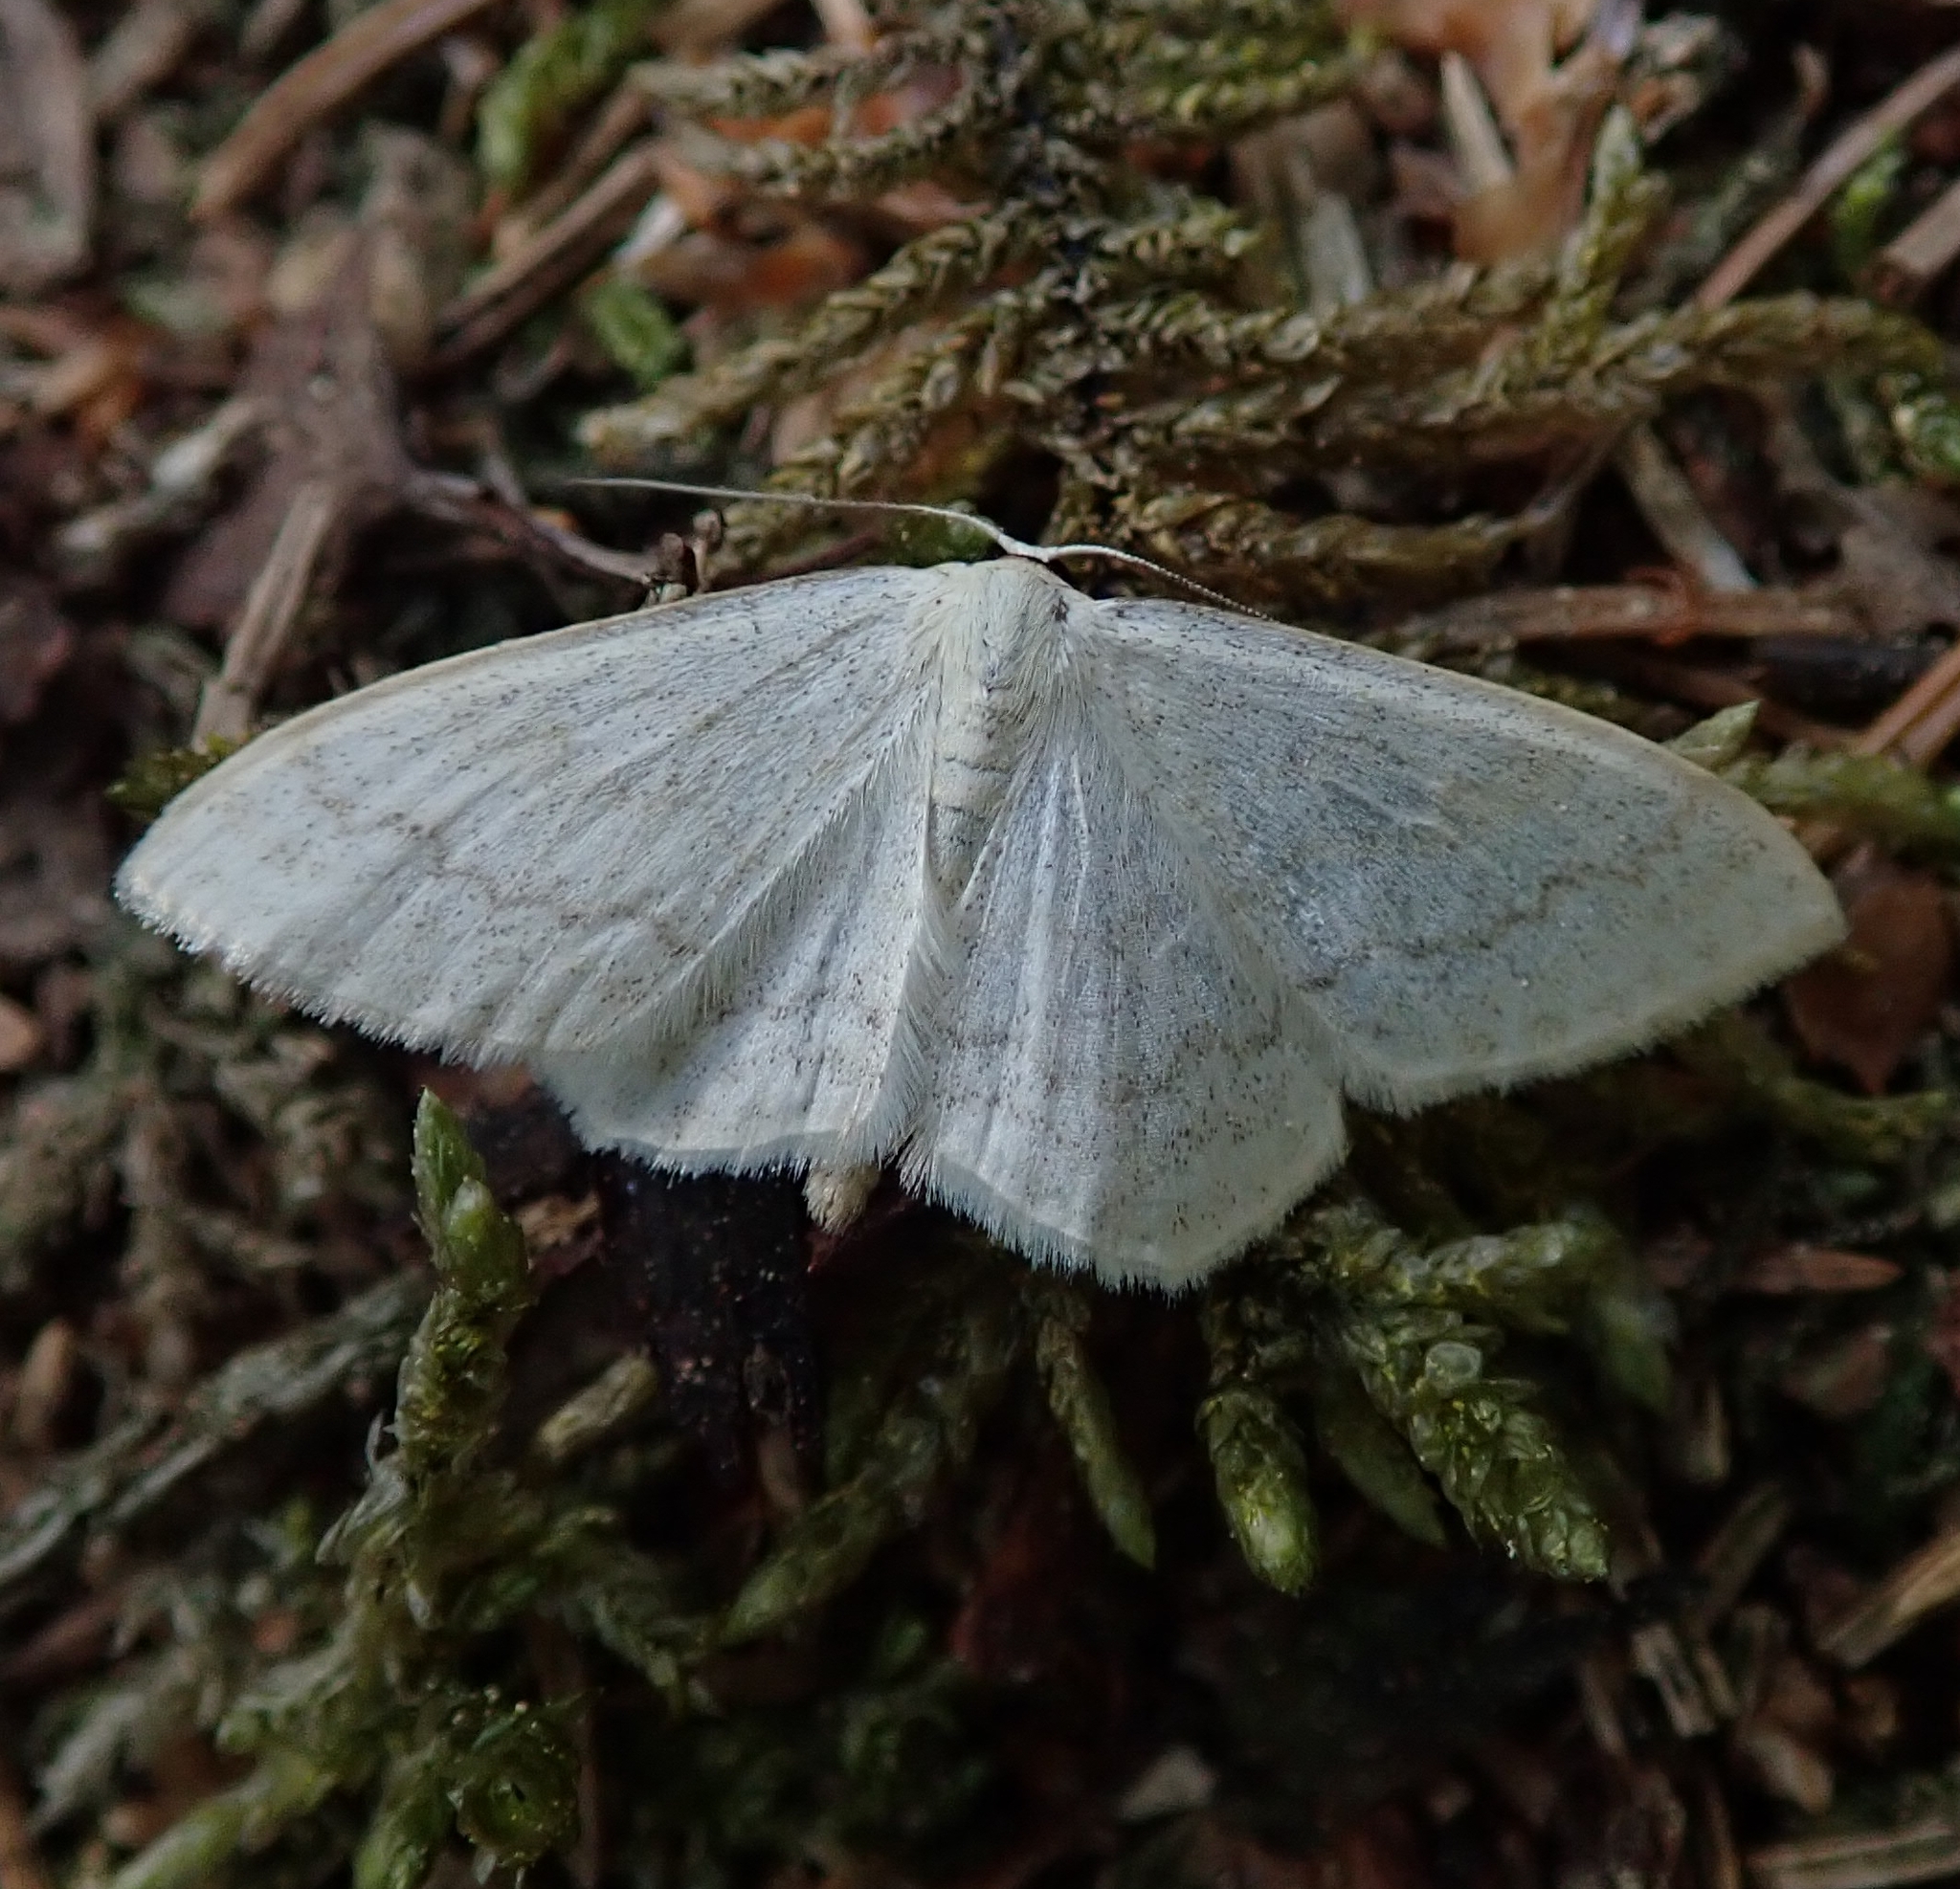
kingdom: Animalia
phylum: Arthropoda
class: Insecta
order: Lepidoptera
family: Geometridae
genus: Scopula
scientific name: Scopula floslactata
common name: Cream wave
